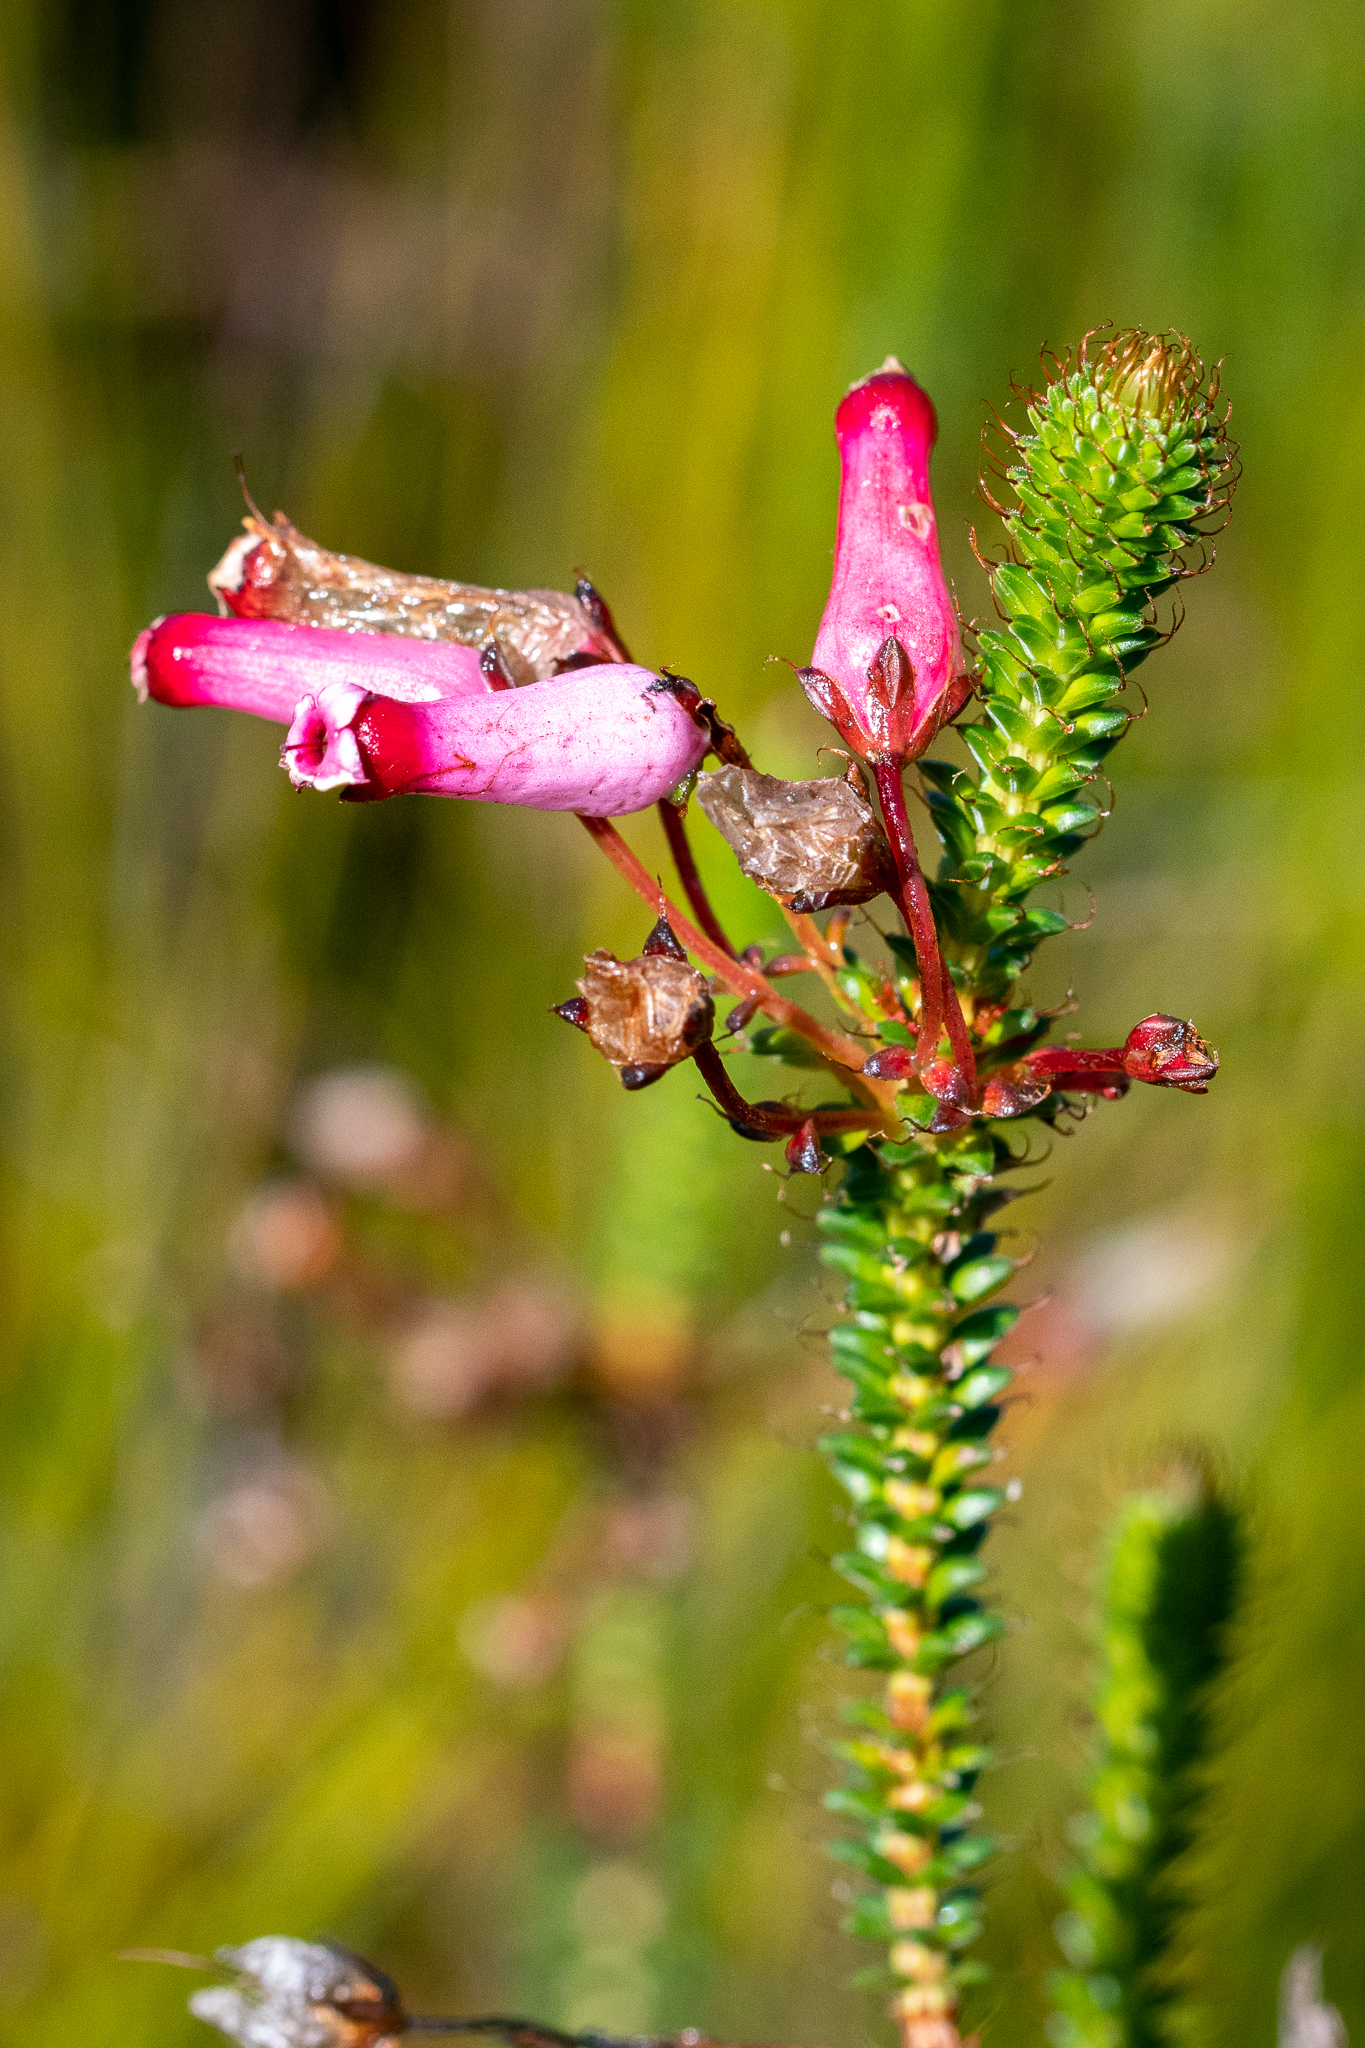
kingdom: Plantae
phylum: Tracheophyta
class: Magnoliopsida
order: Ericales
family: Ericaceae
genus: Erica
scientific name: Erica retorta
